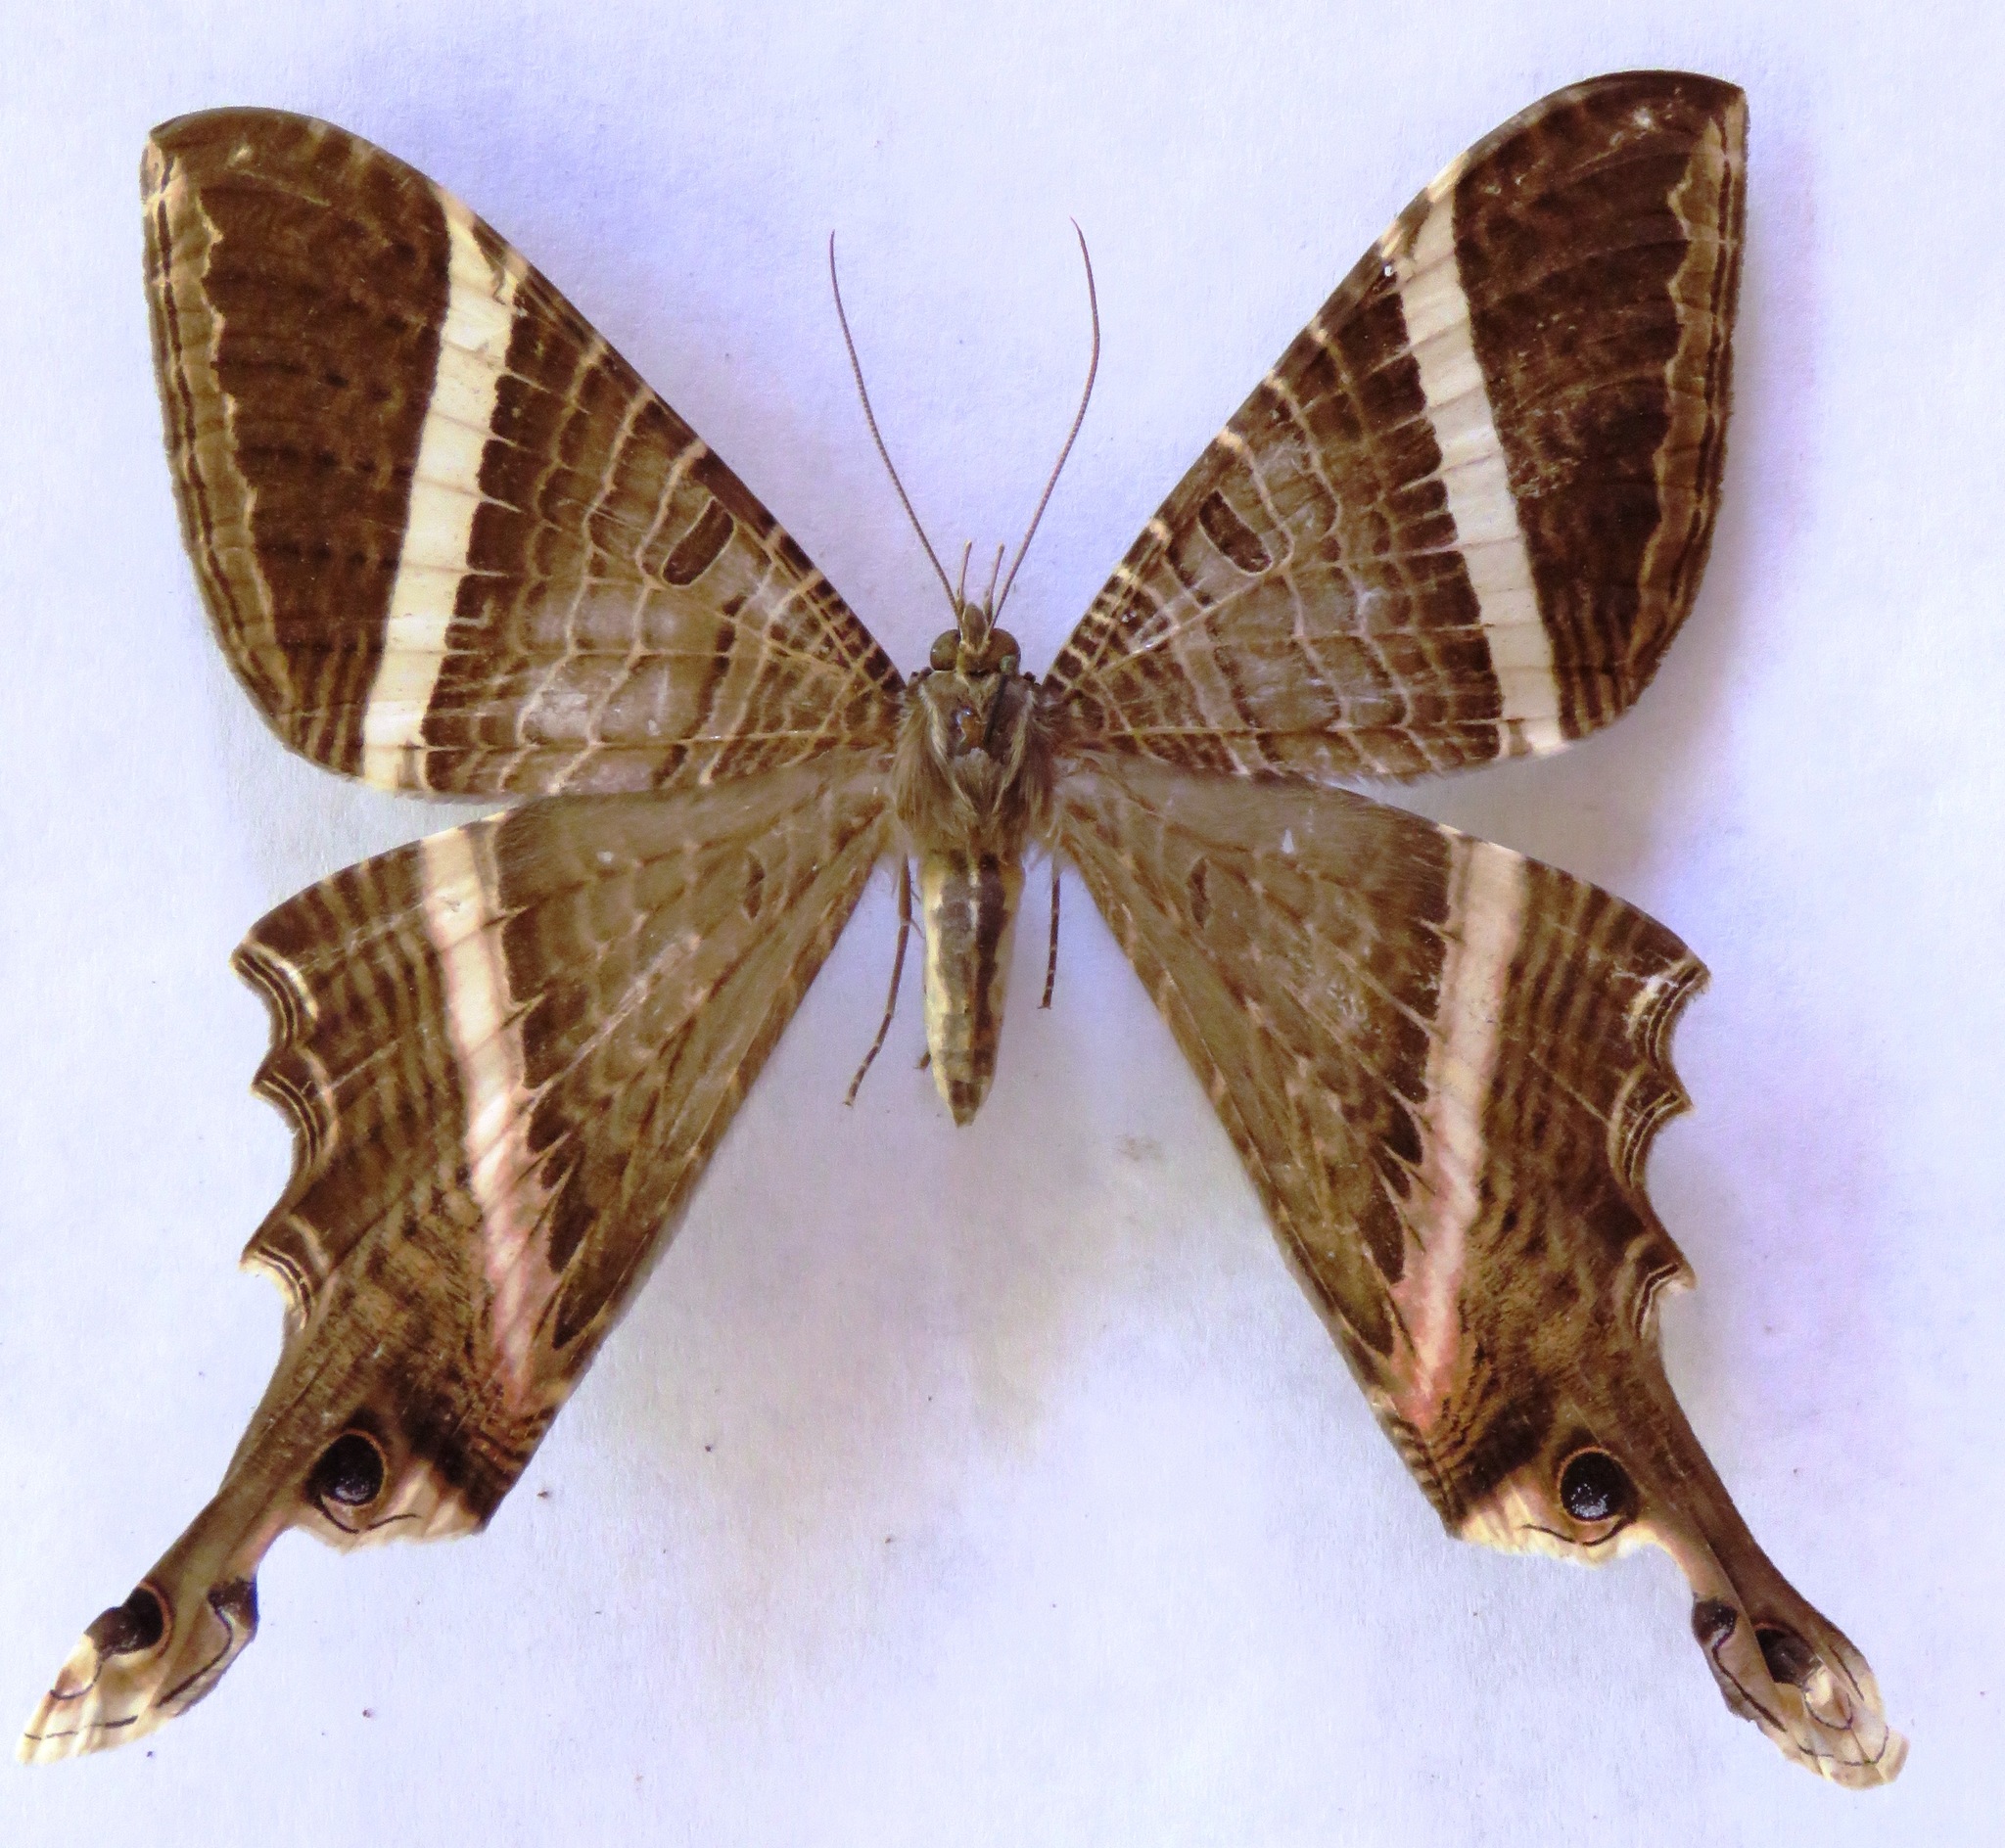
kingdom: Animalia
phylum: Arthropoda
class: Insecta
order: Lepidoptera
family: Sematuridae
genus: Nothus
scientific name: Nothus lunus
